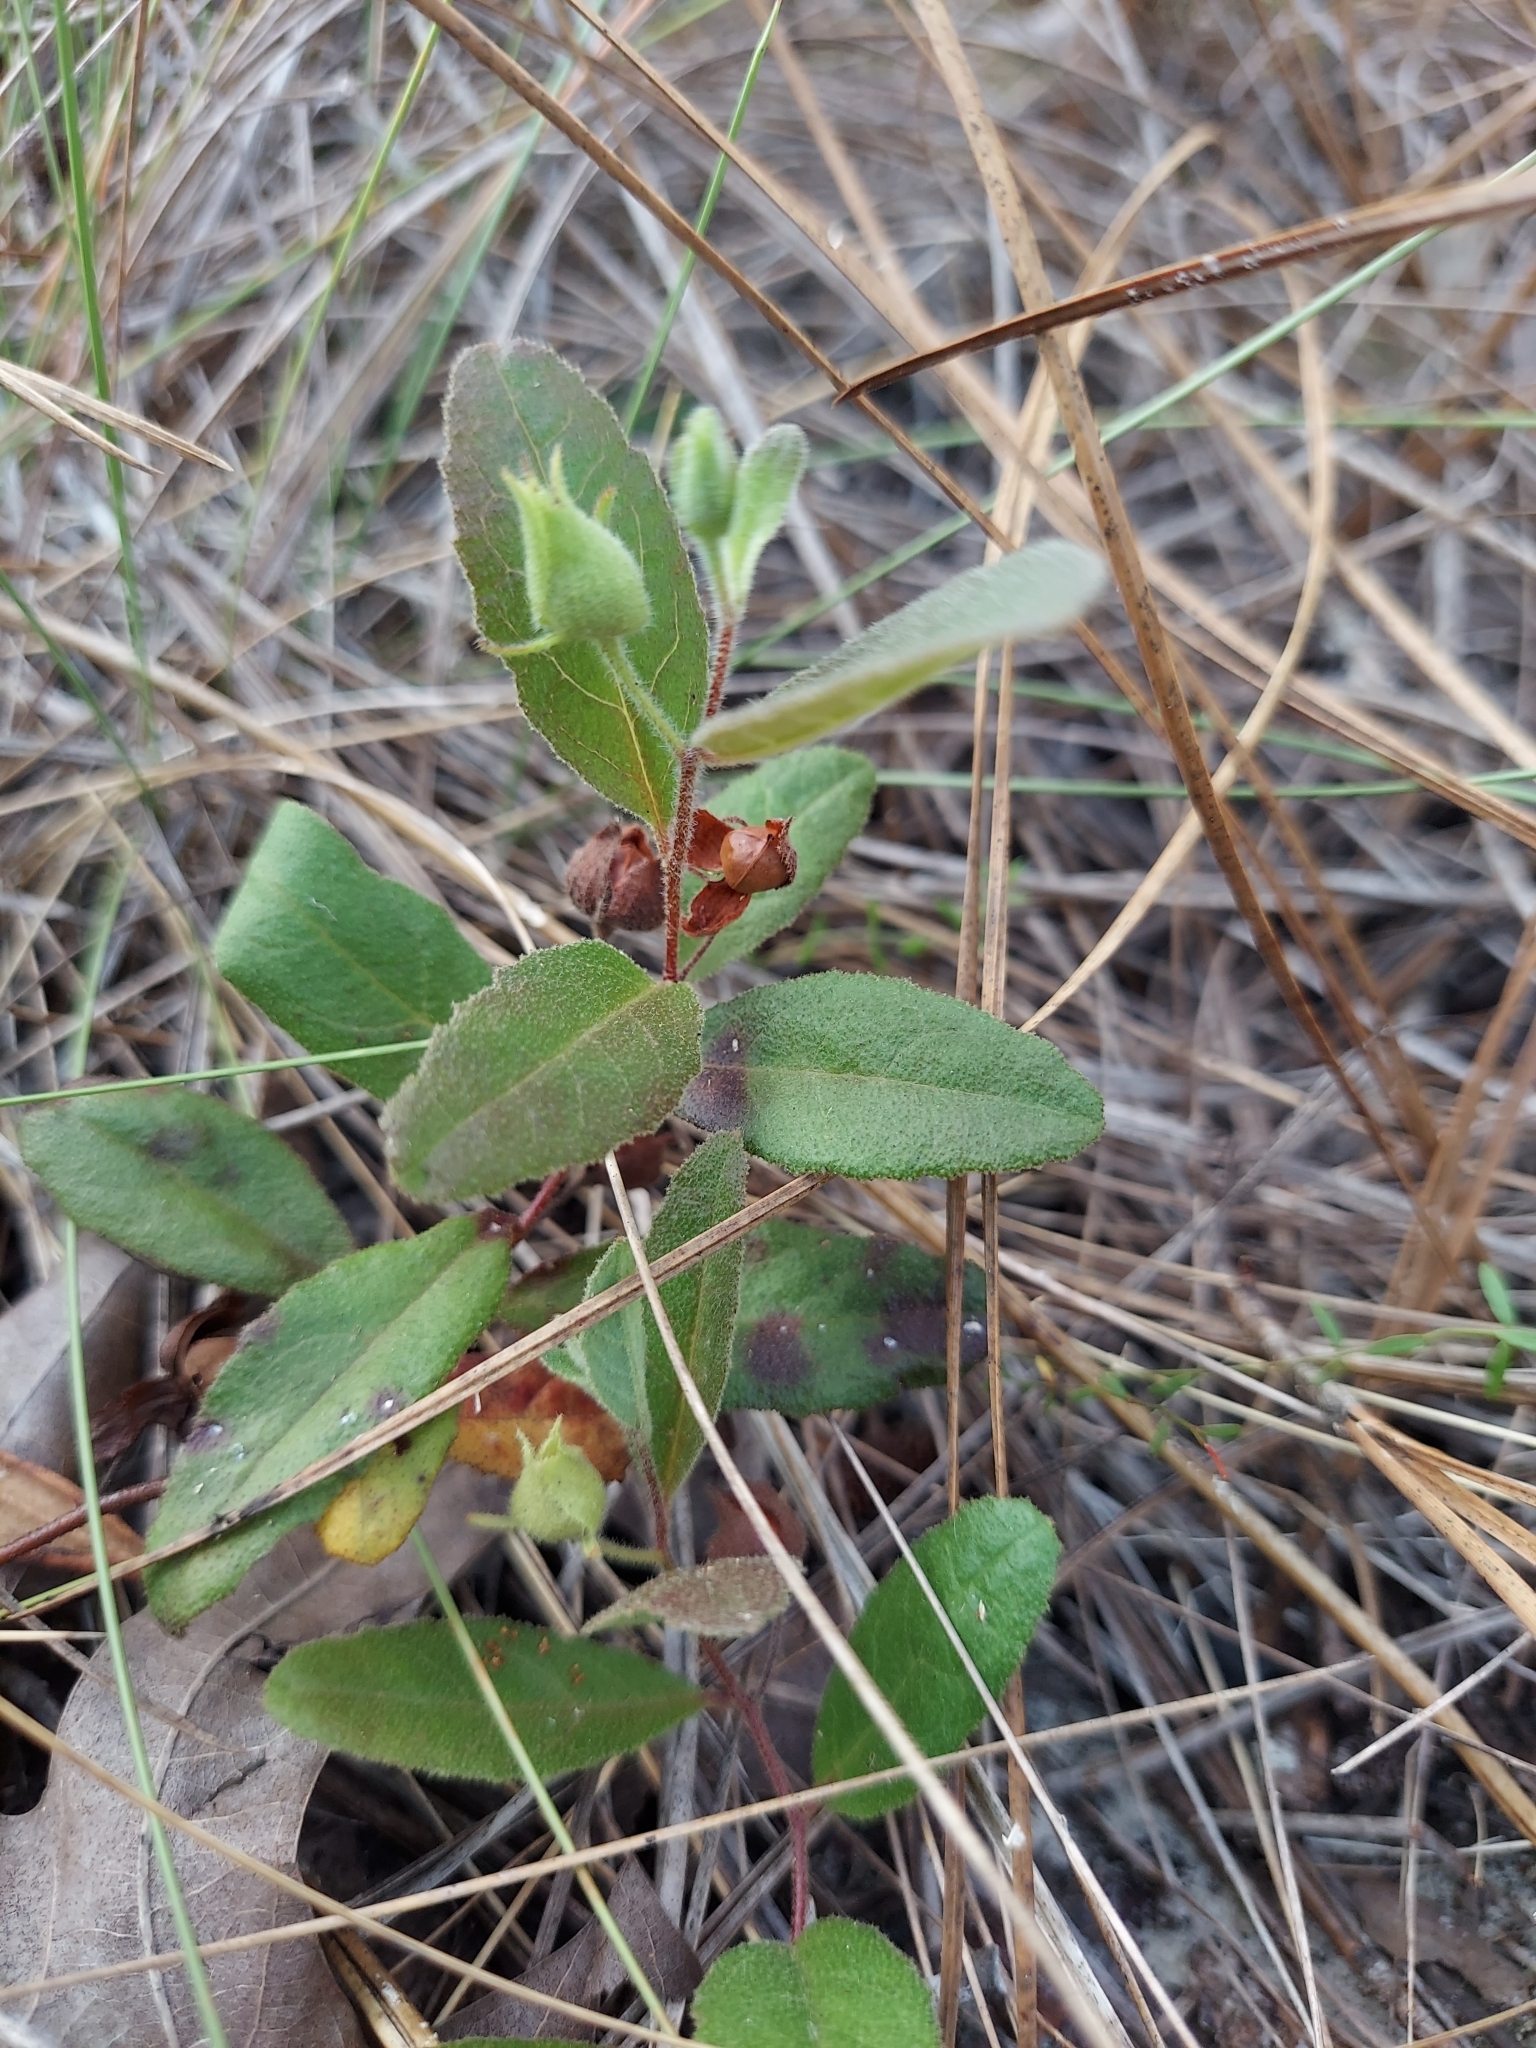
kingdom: Plantae
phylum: Tracheophyta
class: Magnoliopsida
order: Malvales
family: Cistaceae
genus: Crocanthemum
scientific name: Crocanthemum carolinianum
